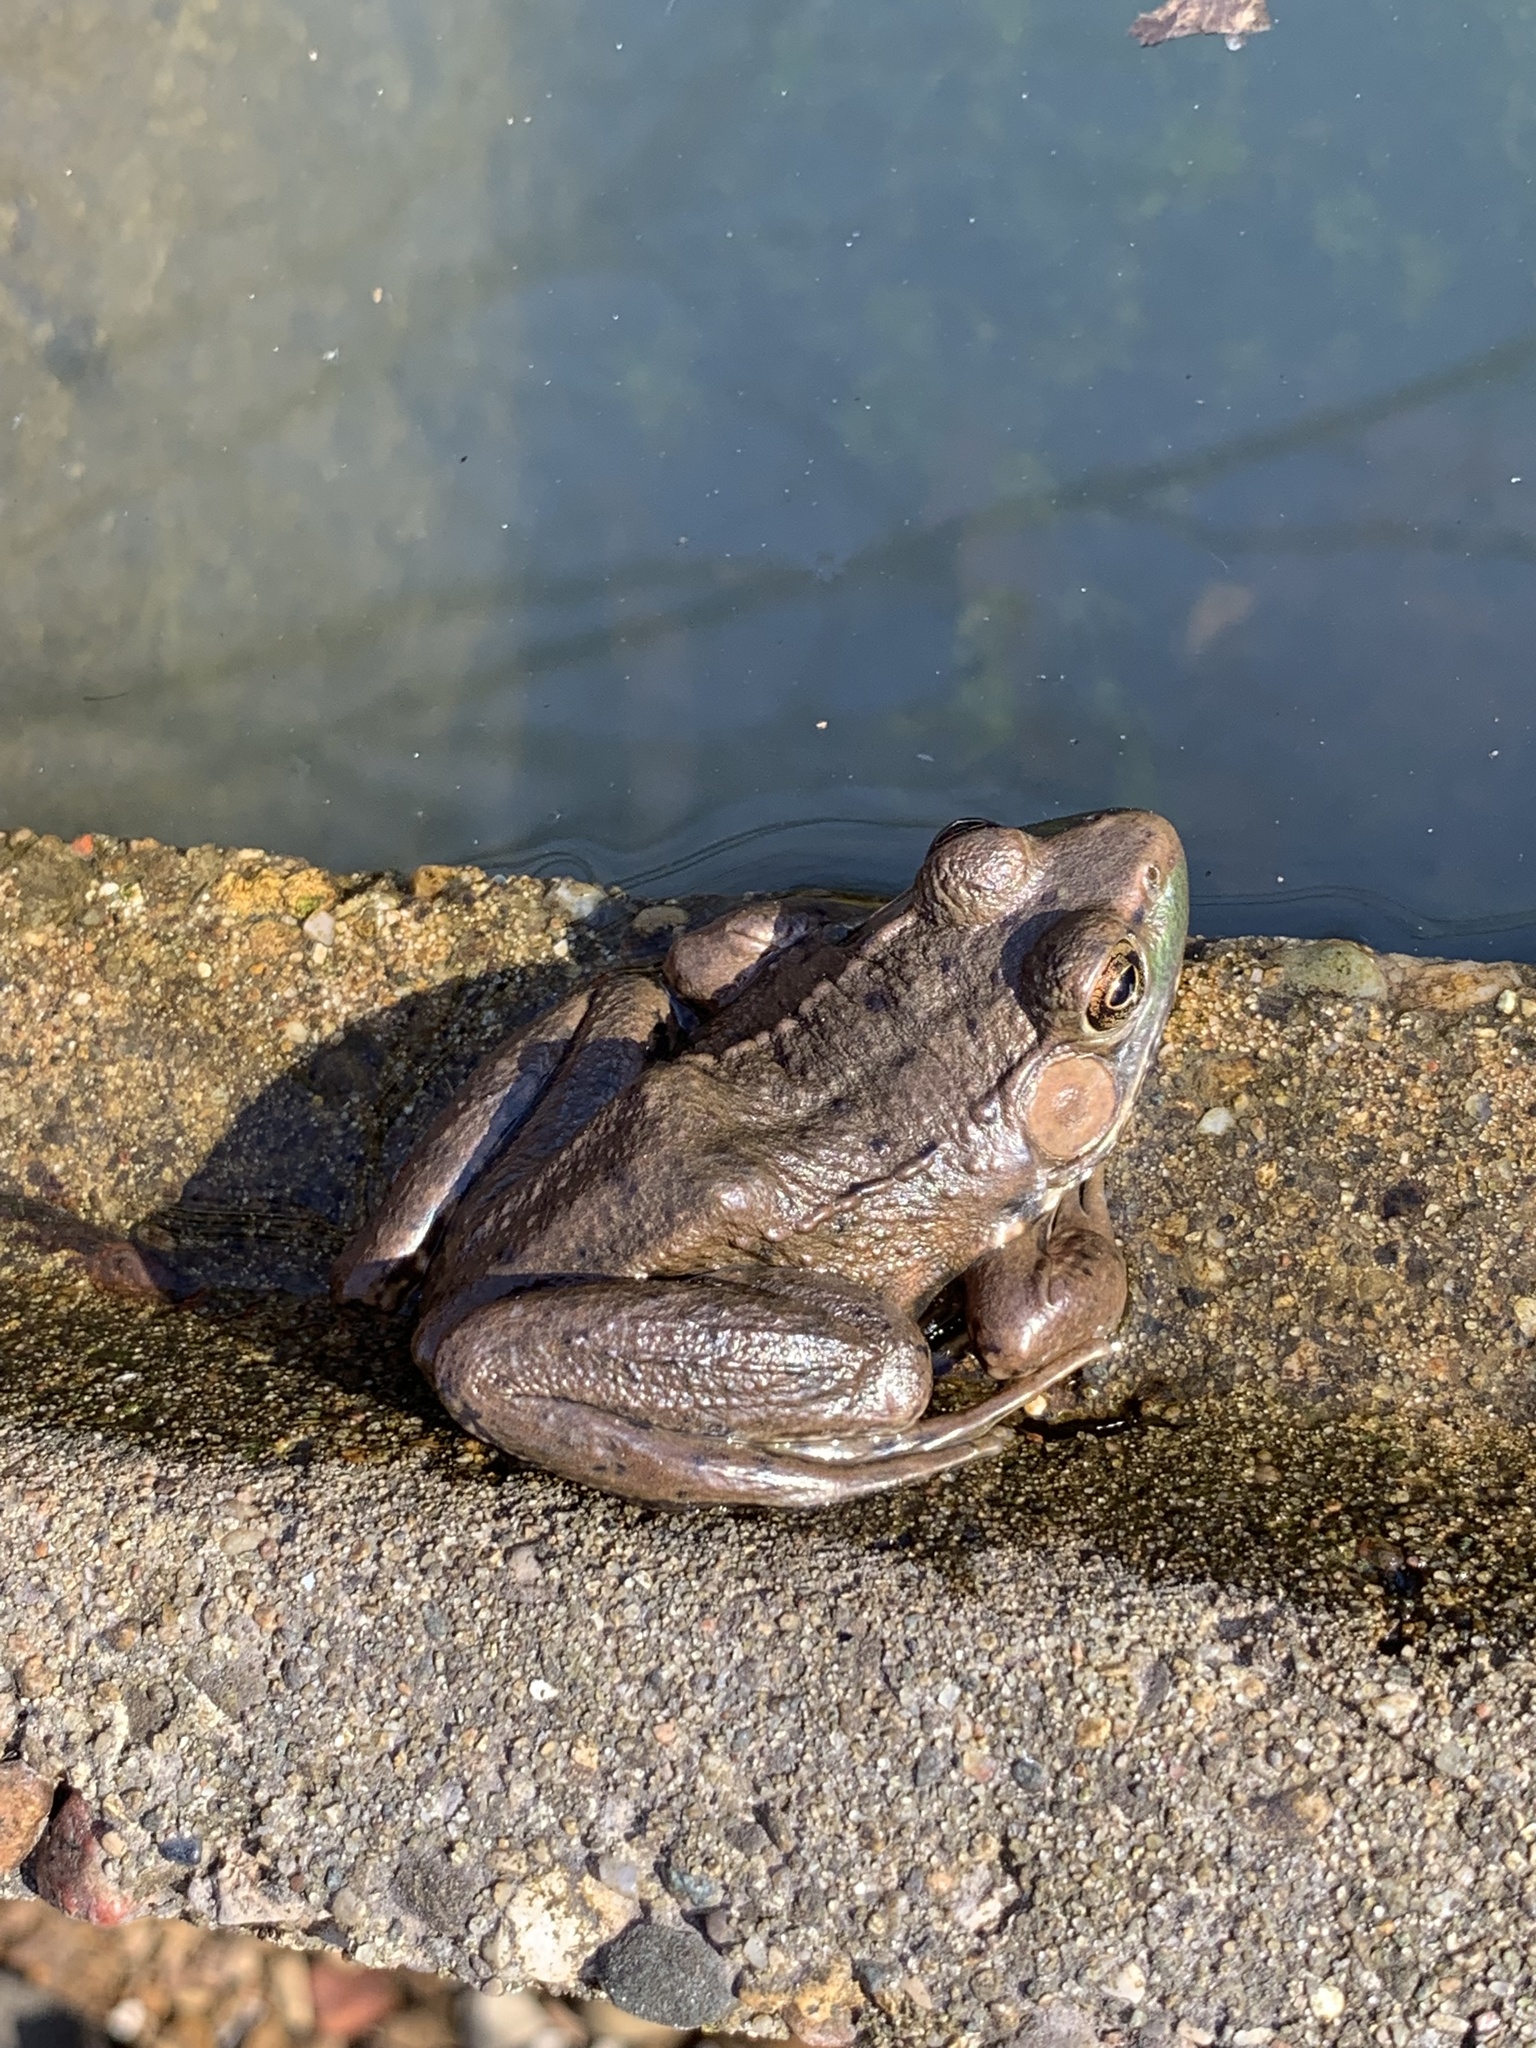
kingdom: Animalia
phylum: Chordata
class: Amphibia
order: Anura
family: Ranidae
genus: Lithobates
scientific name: Lithobates clamitans
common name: Green frog
